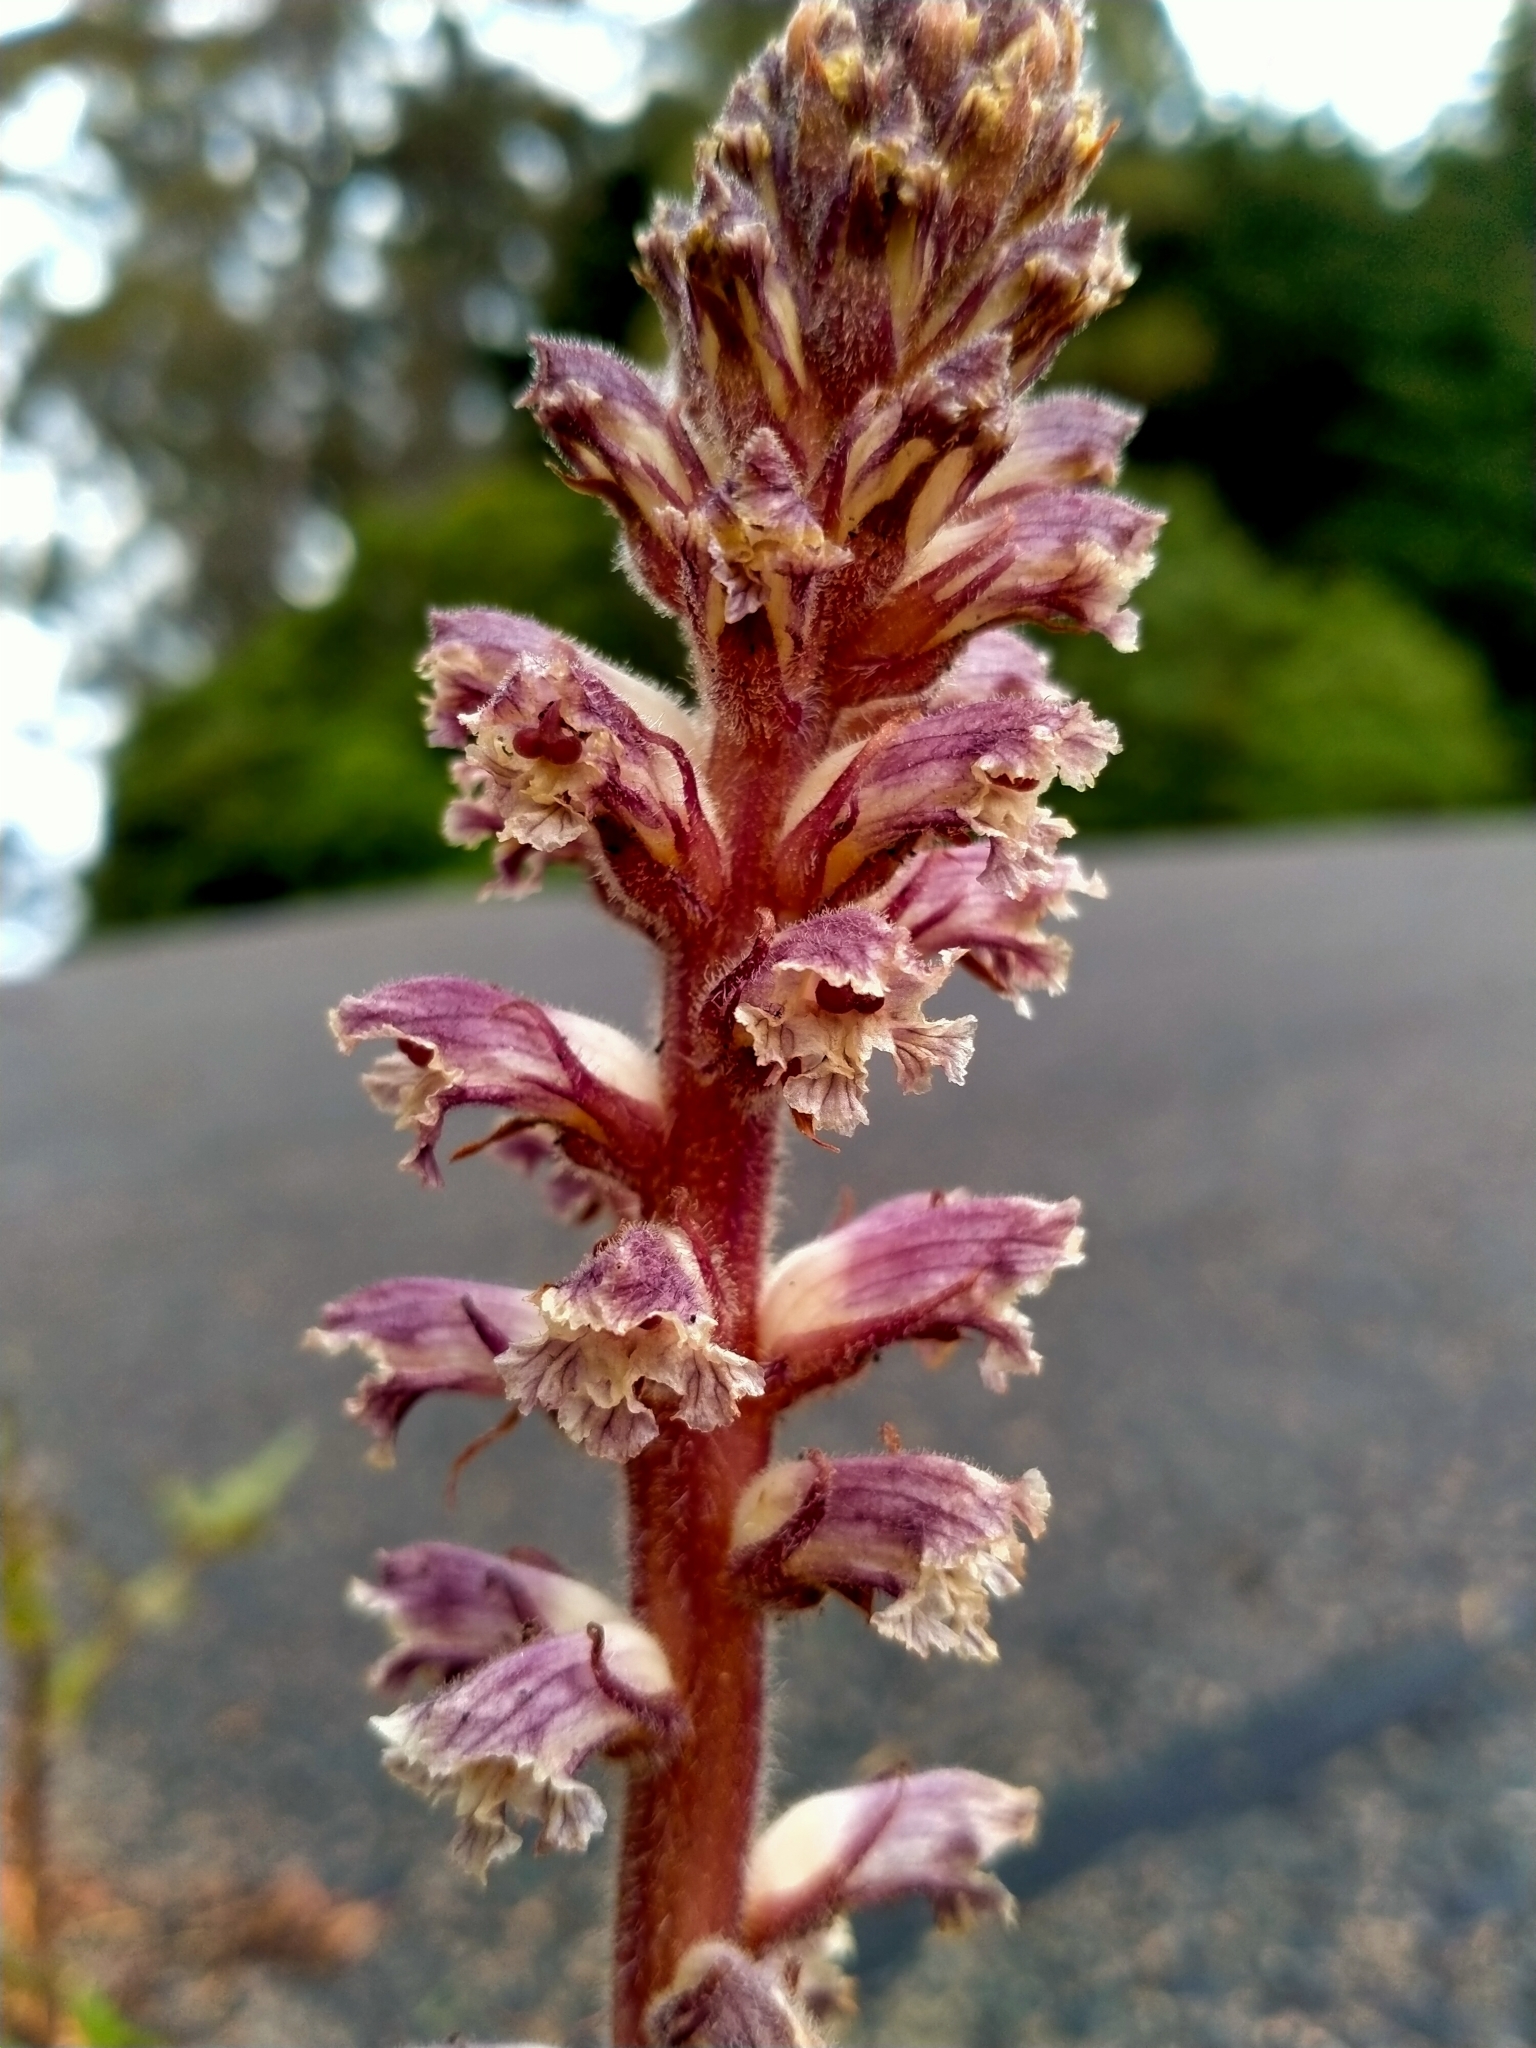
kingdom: Plantae
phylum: Tracheophyta
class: Magnoliopsida
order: Lamiales
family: Orobanchaceae
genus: Orobanche
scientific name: Orobanche minor
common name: Common broomrape
